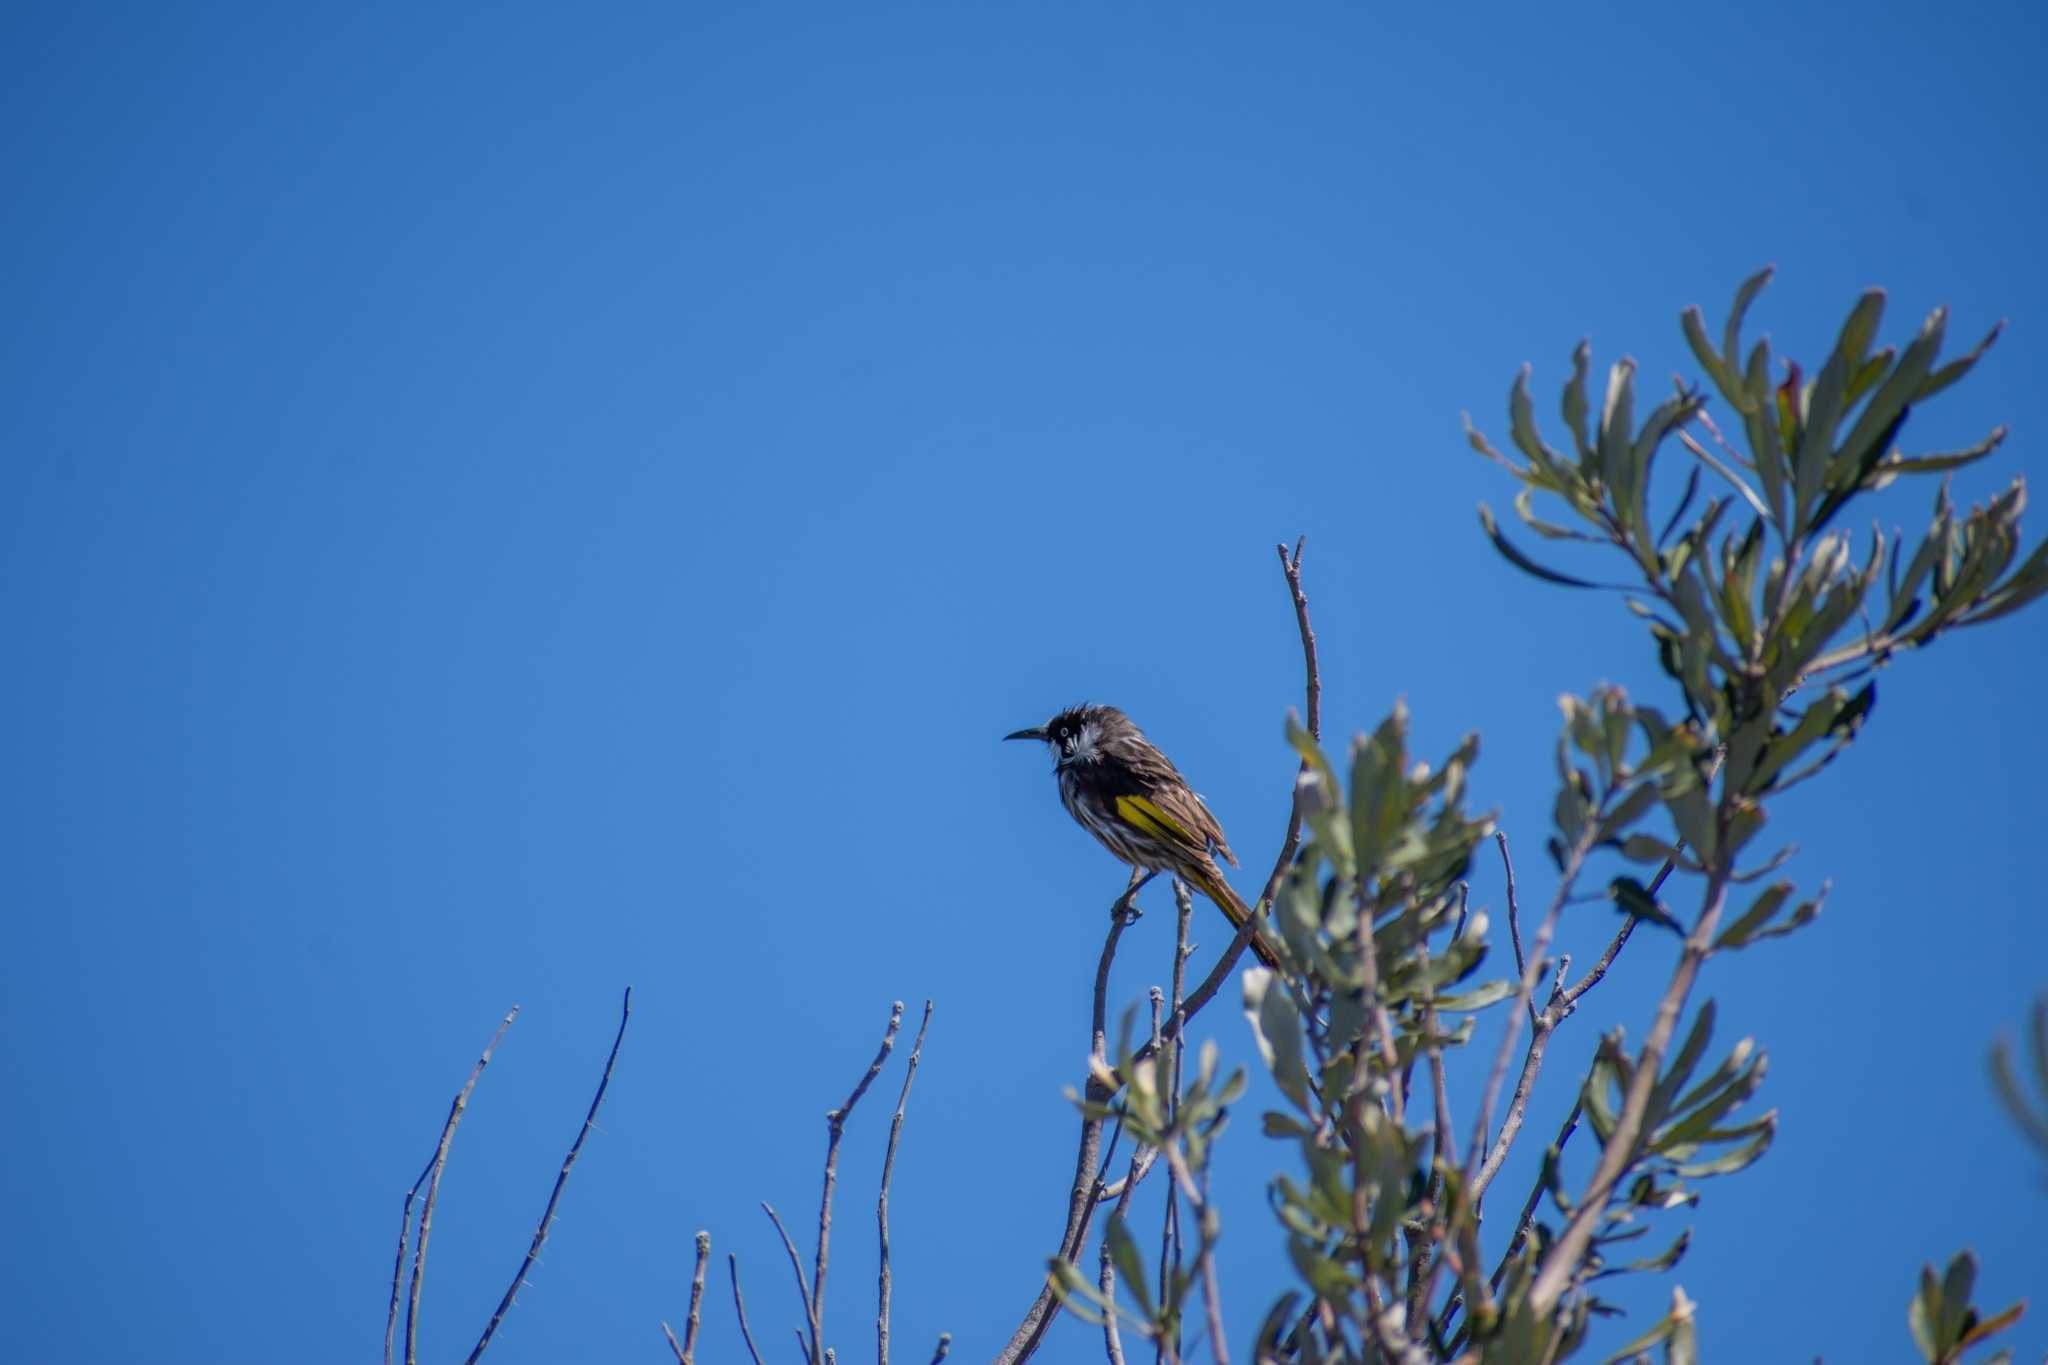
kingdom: Animalia
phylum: Chordata
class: Aves
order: Passeriformes
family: Meliphagidae
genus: Phylidonyris
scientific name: Phylidonyris novaehollandiae
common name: New holland honeyeater
